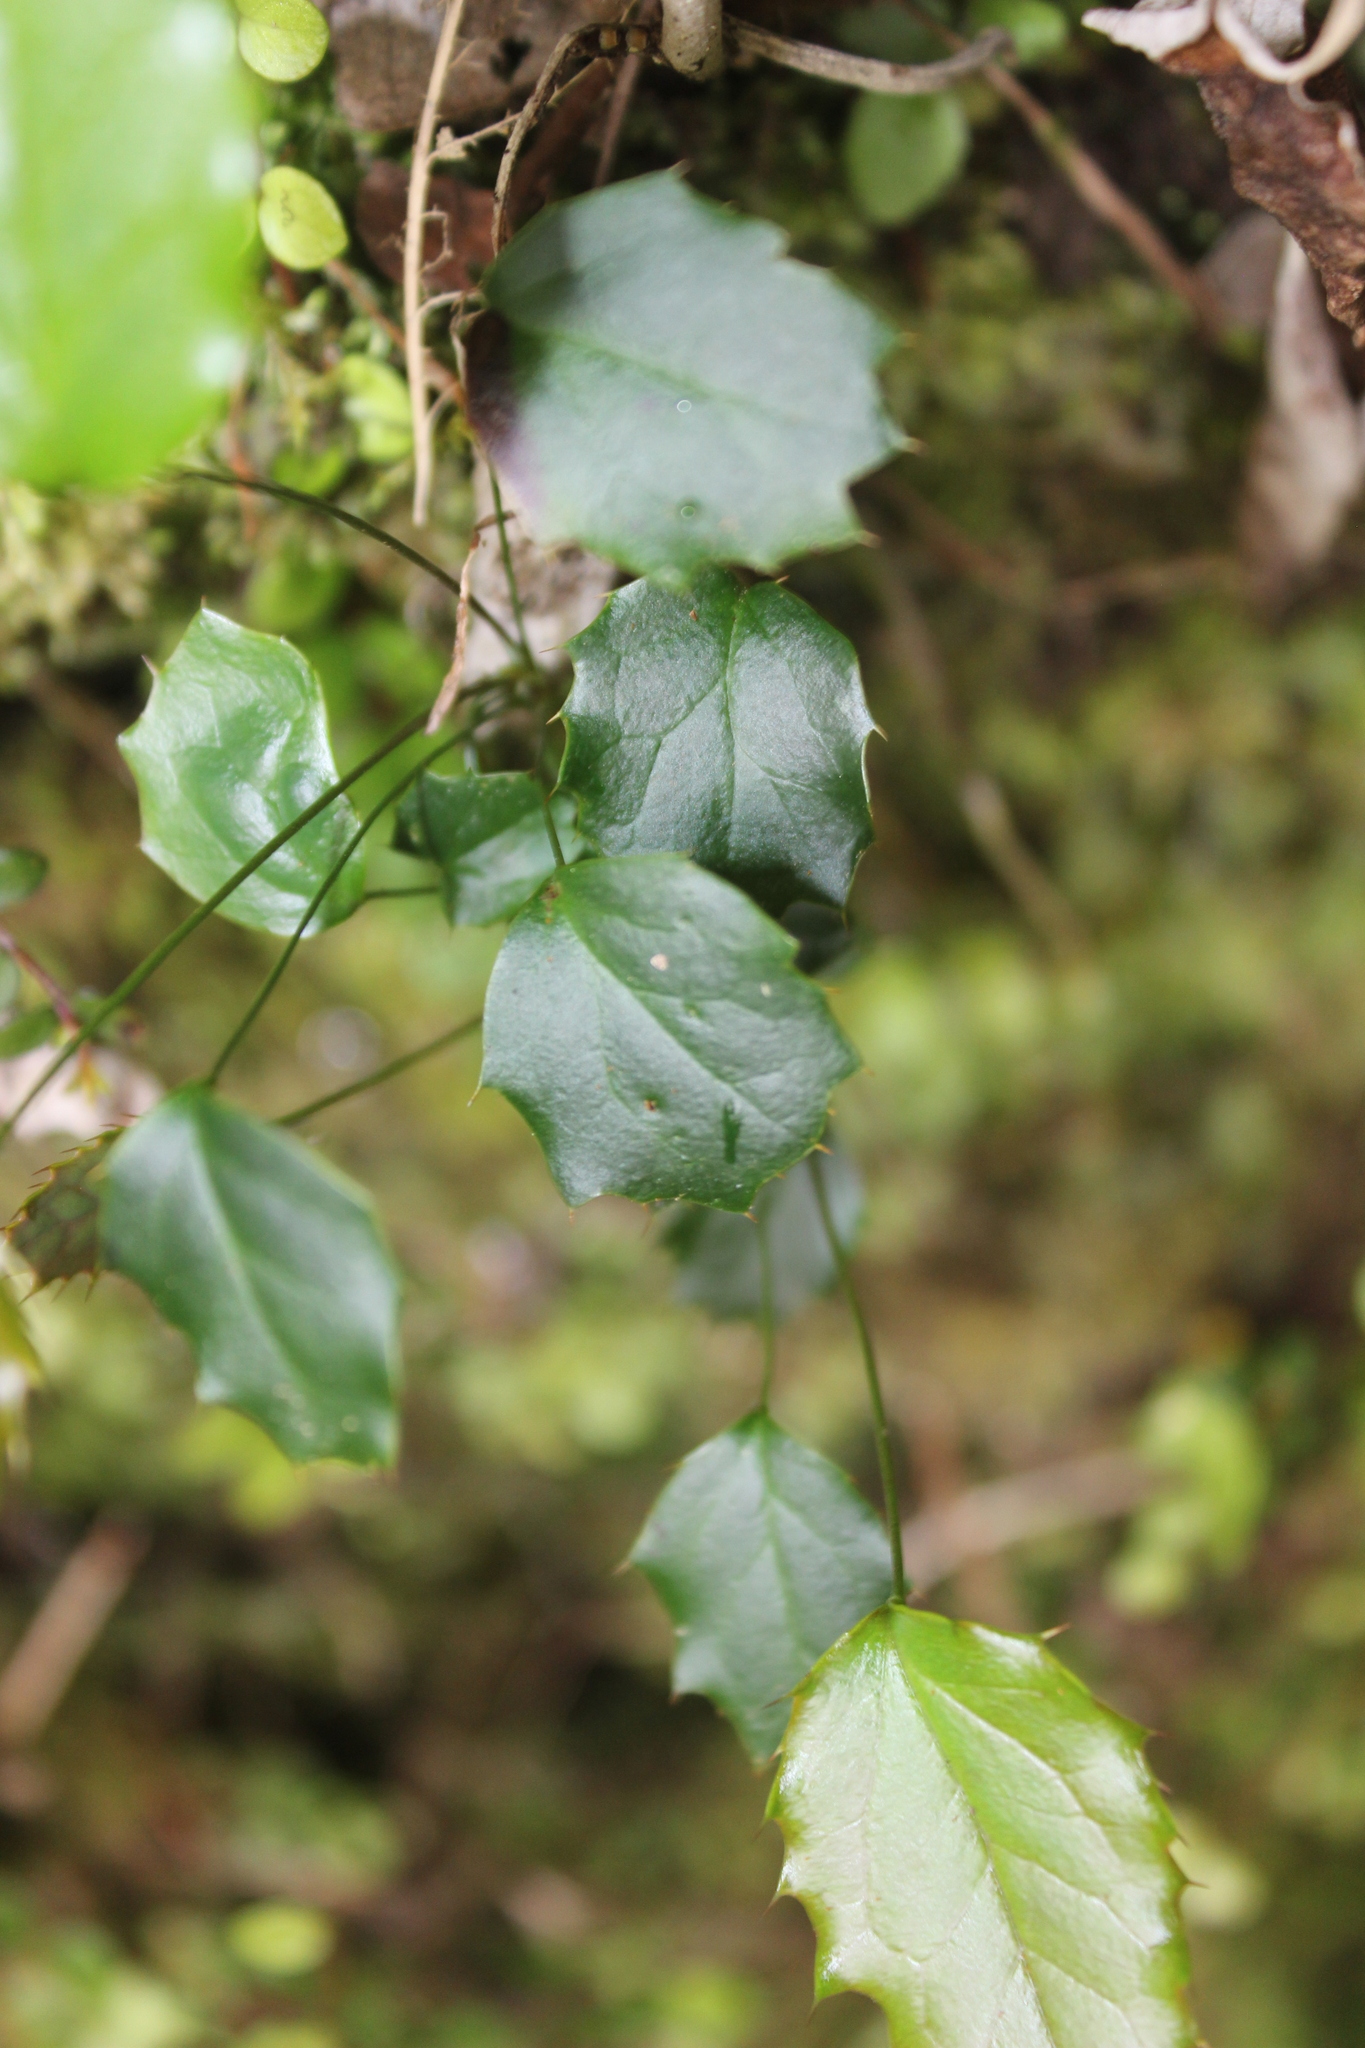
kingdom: Plantae
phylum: Tracheophyta
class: Magnoliopsida
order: Ranunculales
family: Berberidaceae
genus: Berberis
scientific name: Berberis darwinii
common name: Darwin's barberry
